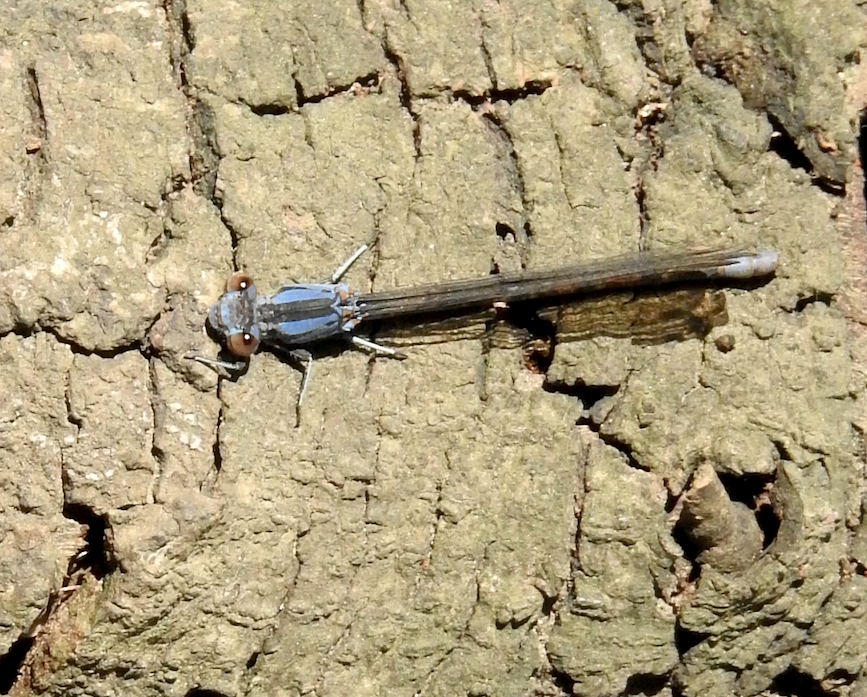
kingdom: Animalia
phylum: Arthropoda
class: Insecta
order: Odonata
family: Coenagrionidae
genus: Argia
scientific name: Argia vivida
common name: Vivid dancer
